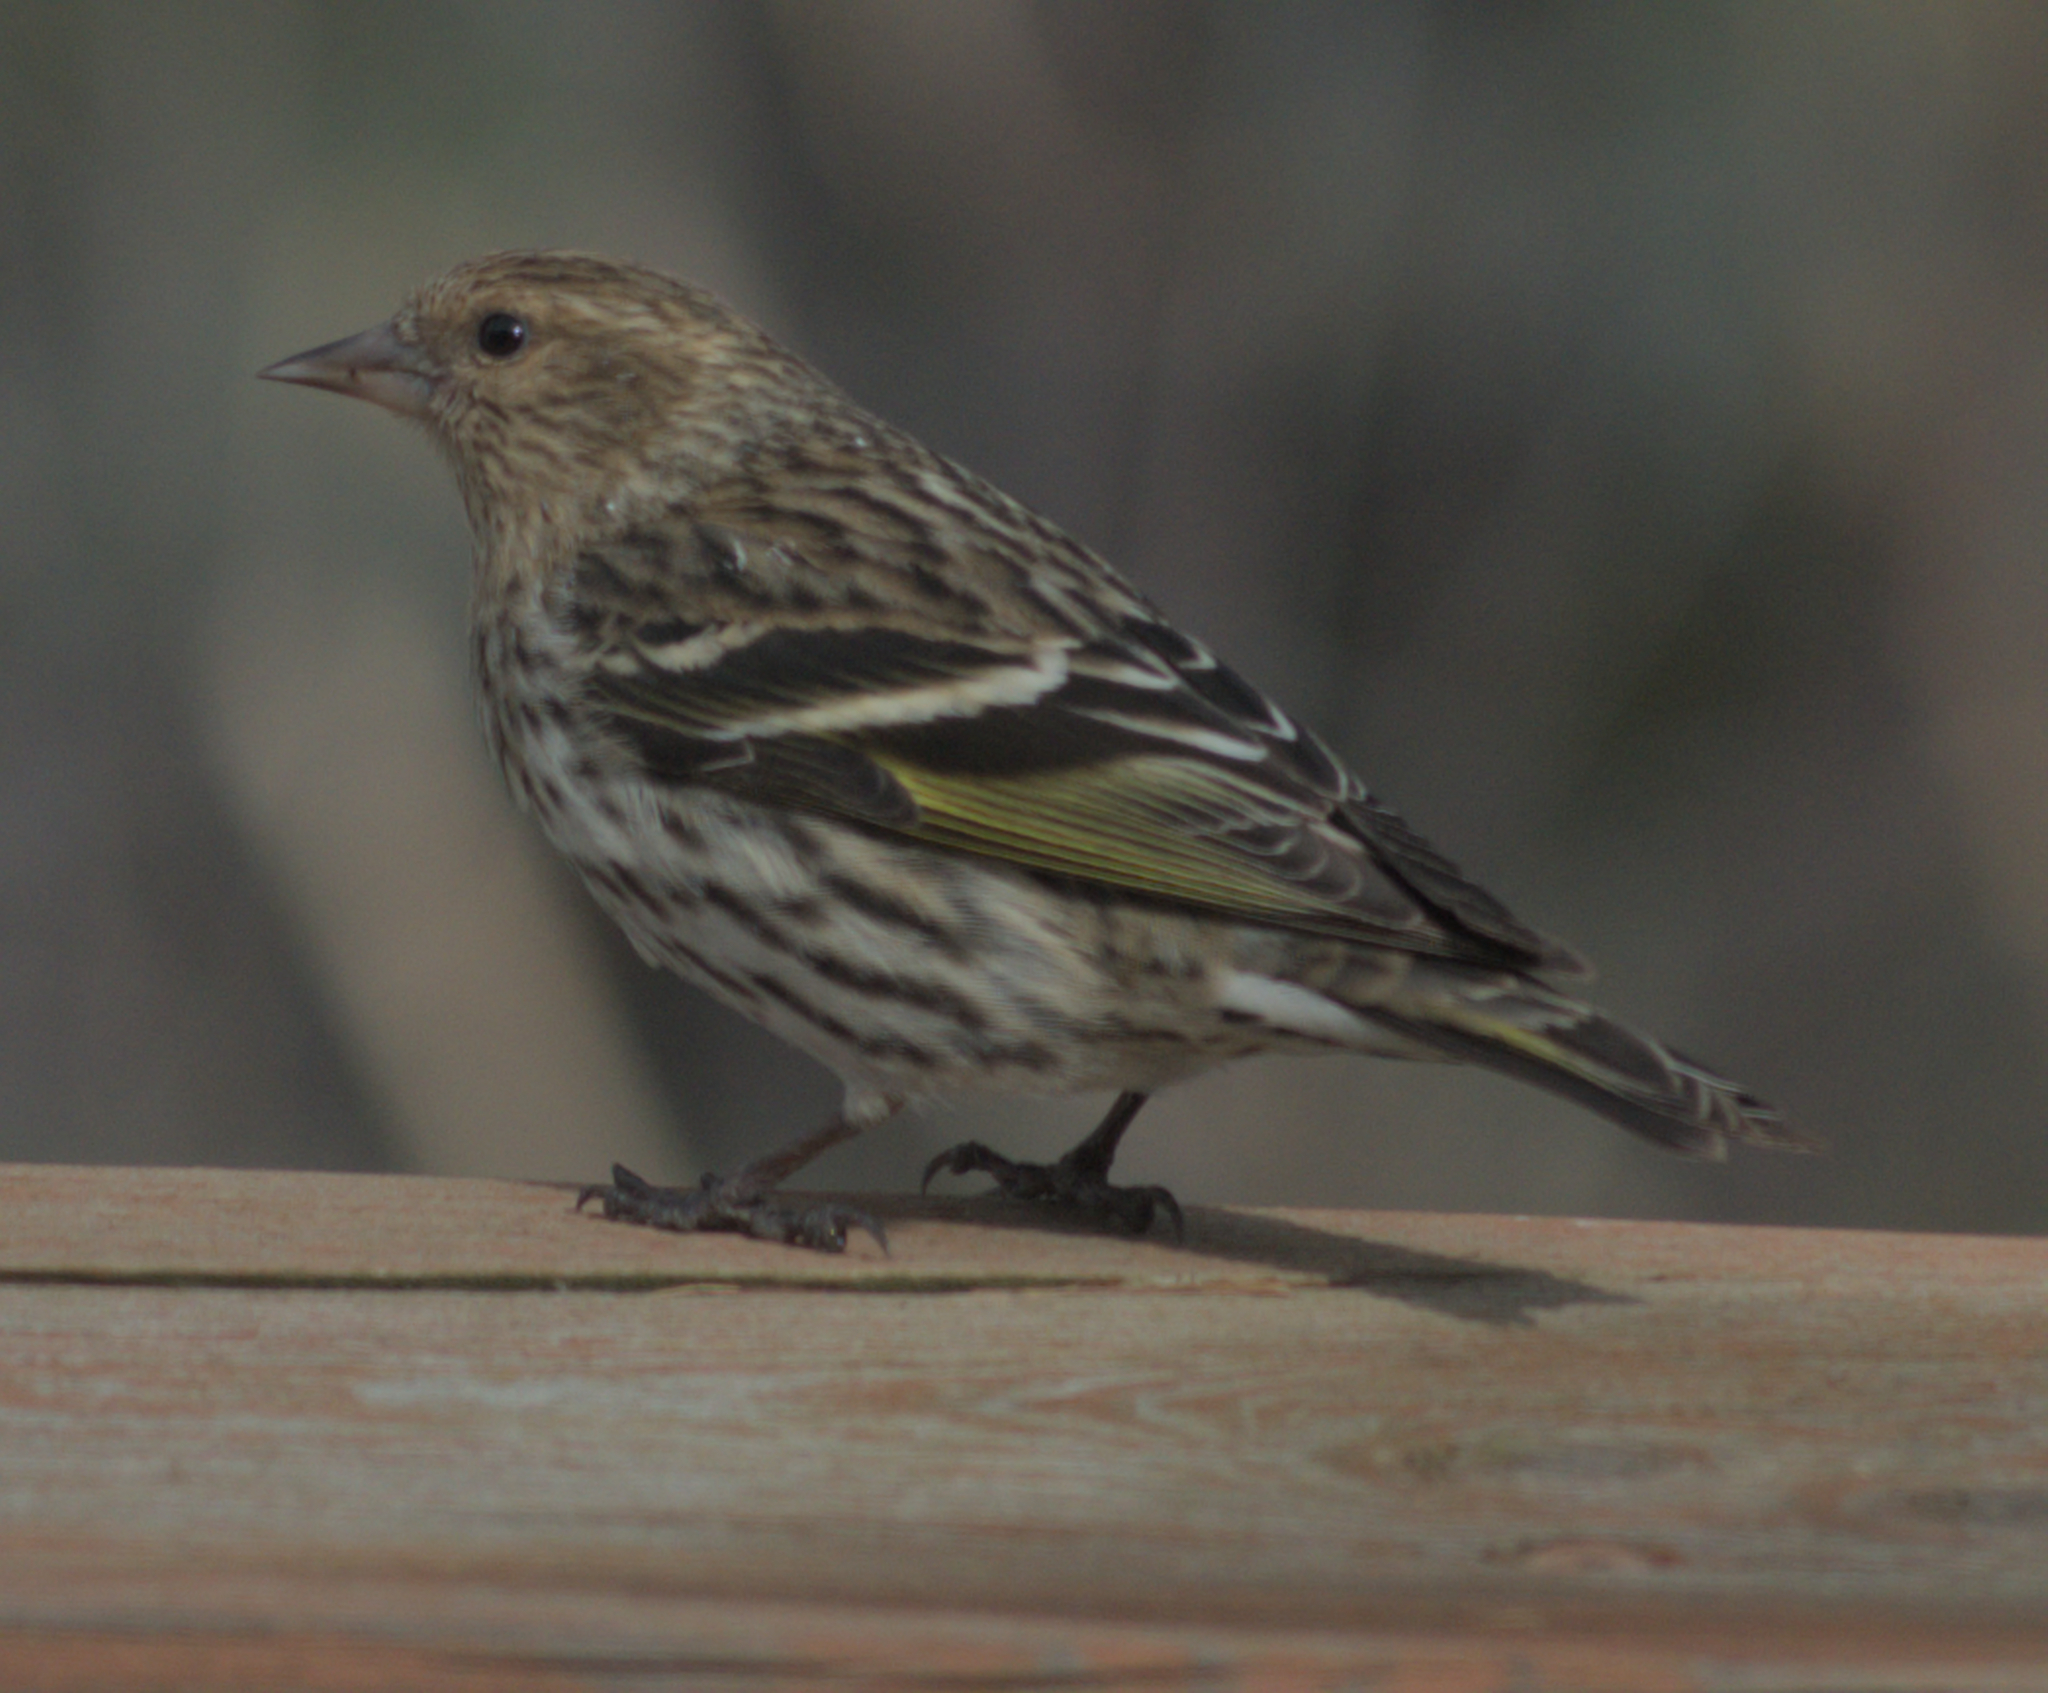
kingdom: Animalia
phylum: Chordata
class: Aves
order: Passeriformes
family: Fringillidae
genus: Spinus
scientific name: Spinus pinus
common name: Pine siskin
